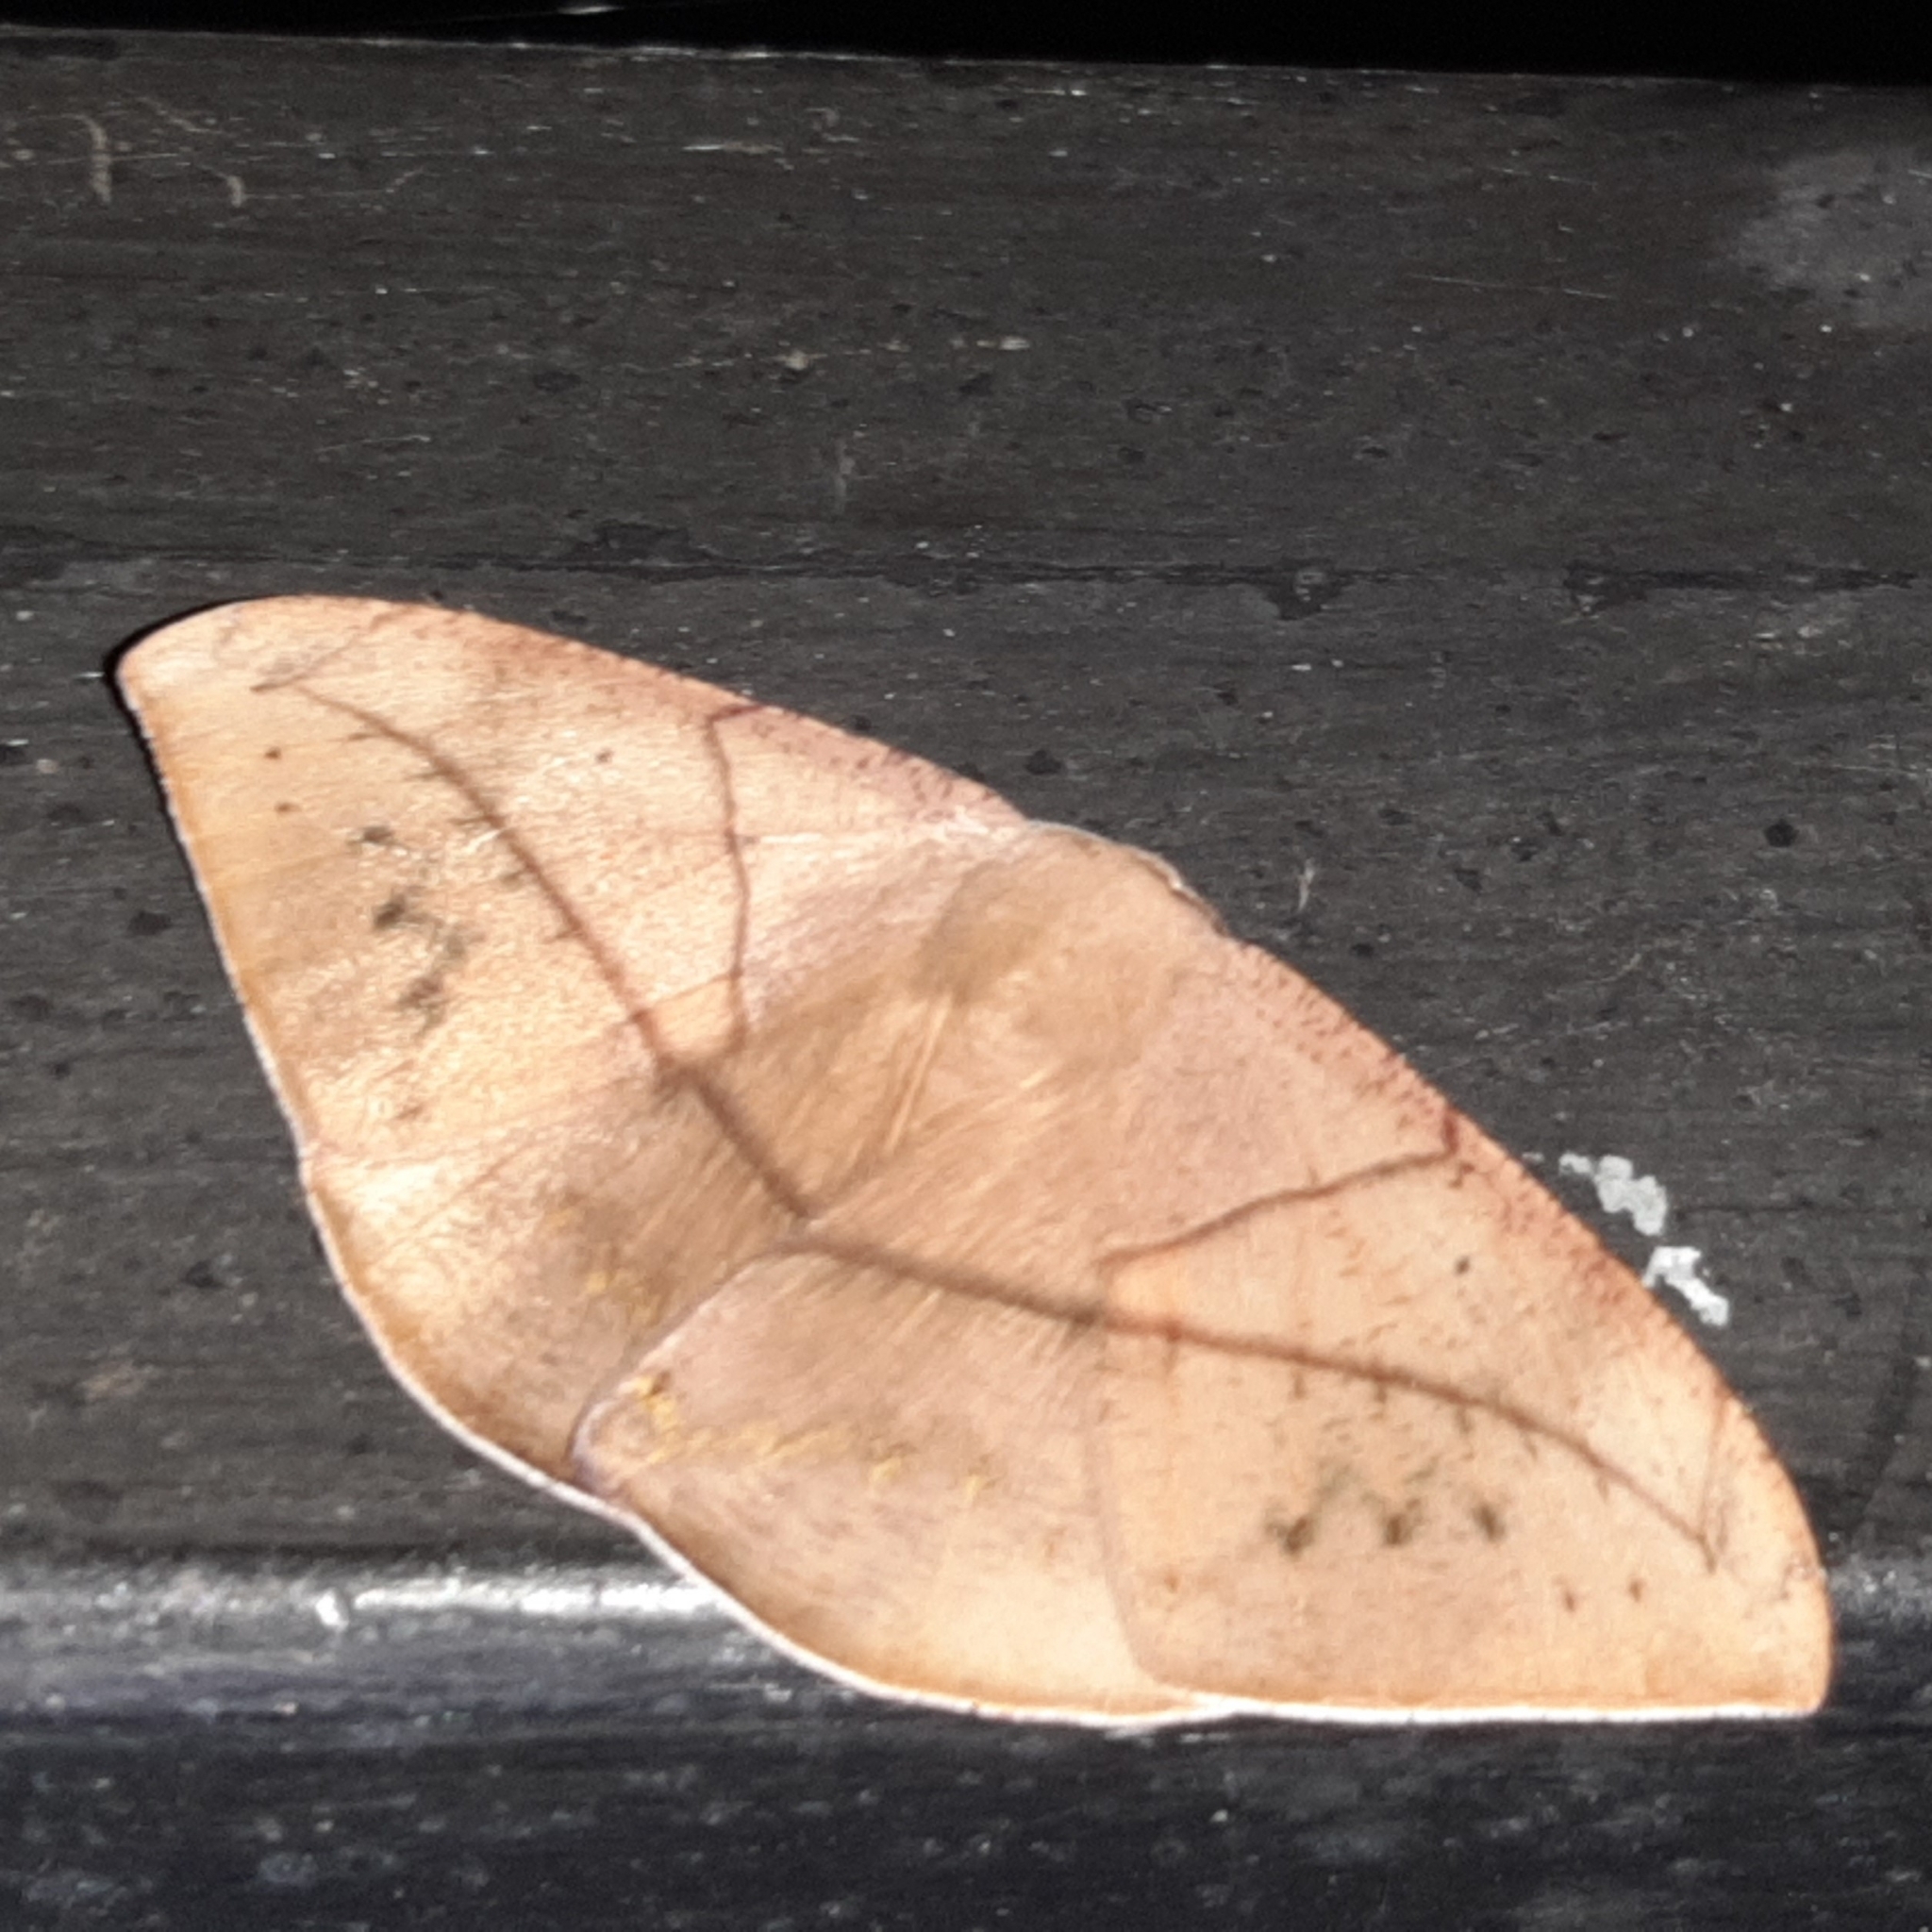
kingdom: Animalia
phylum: Arthropoda
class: Insecta
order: Lepidoptera
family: Geometridae
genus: Oxydia
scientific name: Oxydia trychiata
